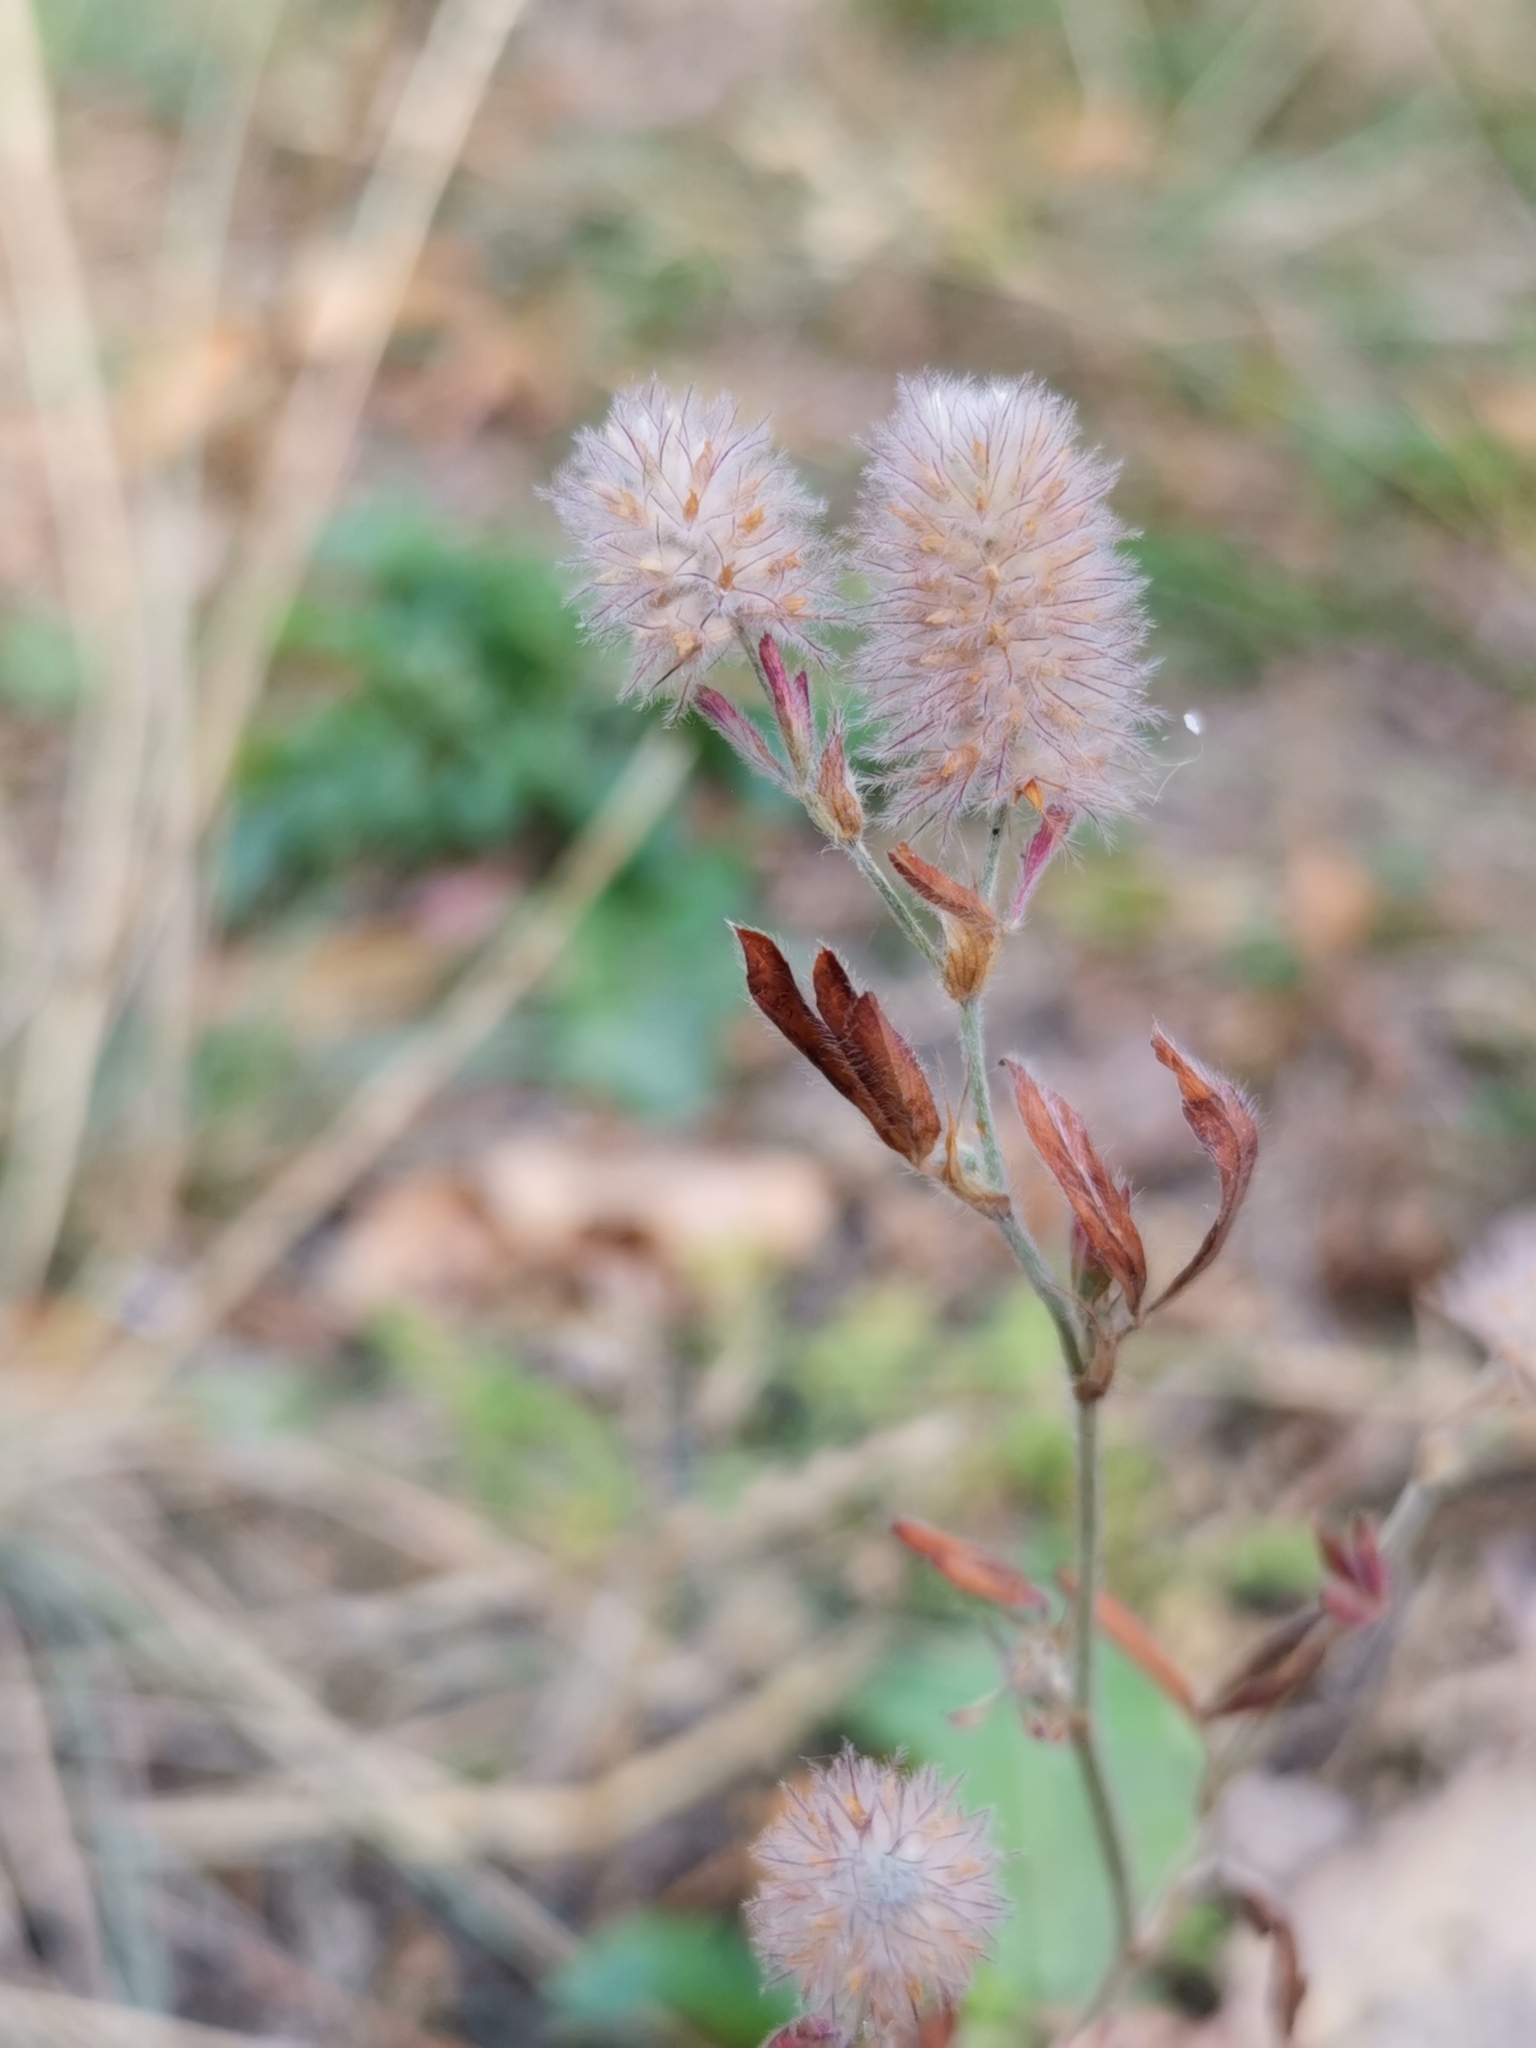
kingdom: Plantae
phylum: Tracheophyta
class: Magnoliopsida
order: Fabales
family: Fabaceae
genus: Trifolium
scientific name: Trifolium arvense
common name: Hare's-foot clover
